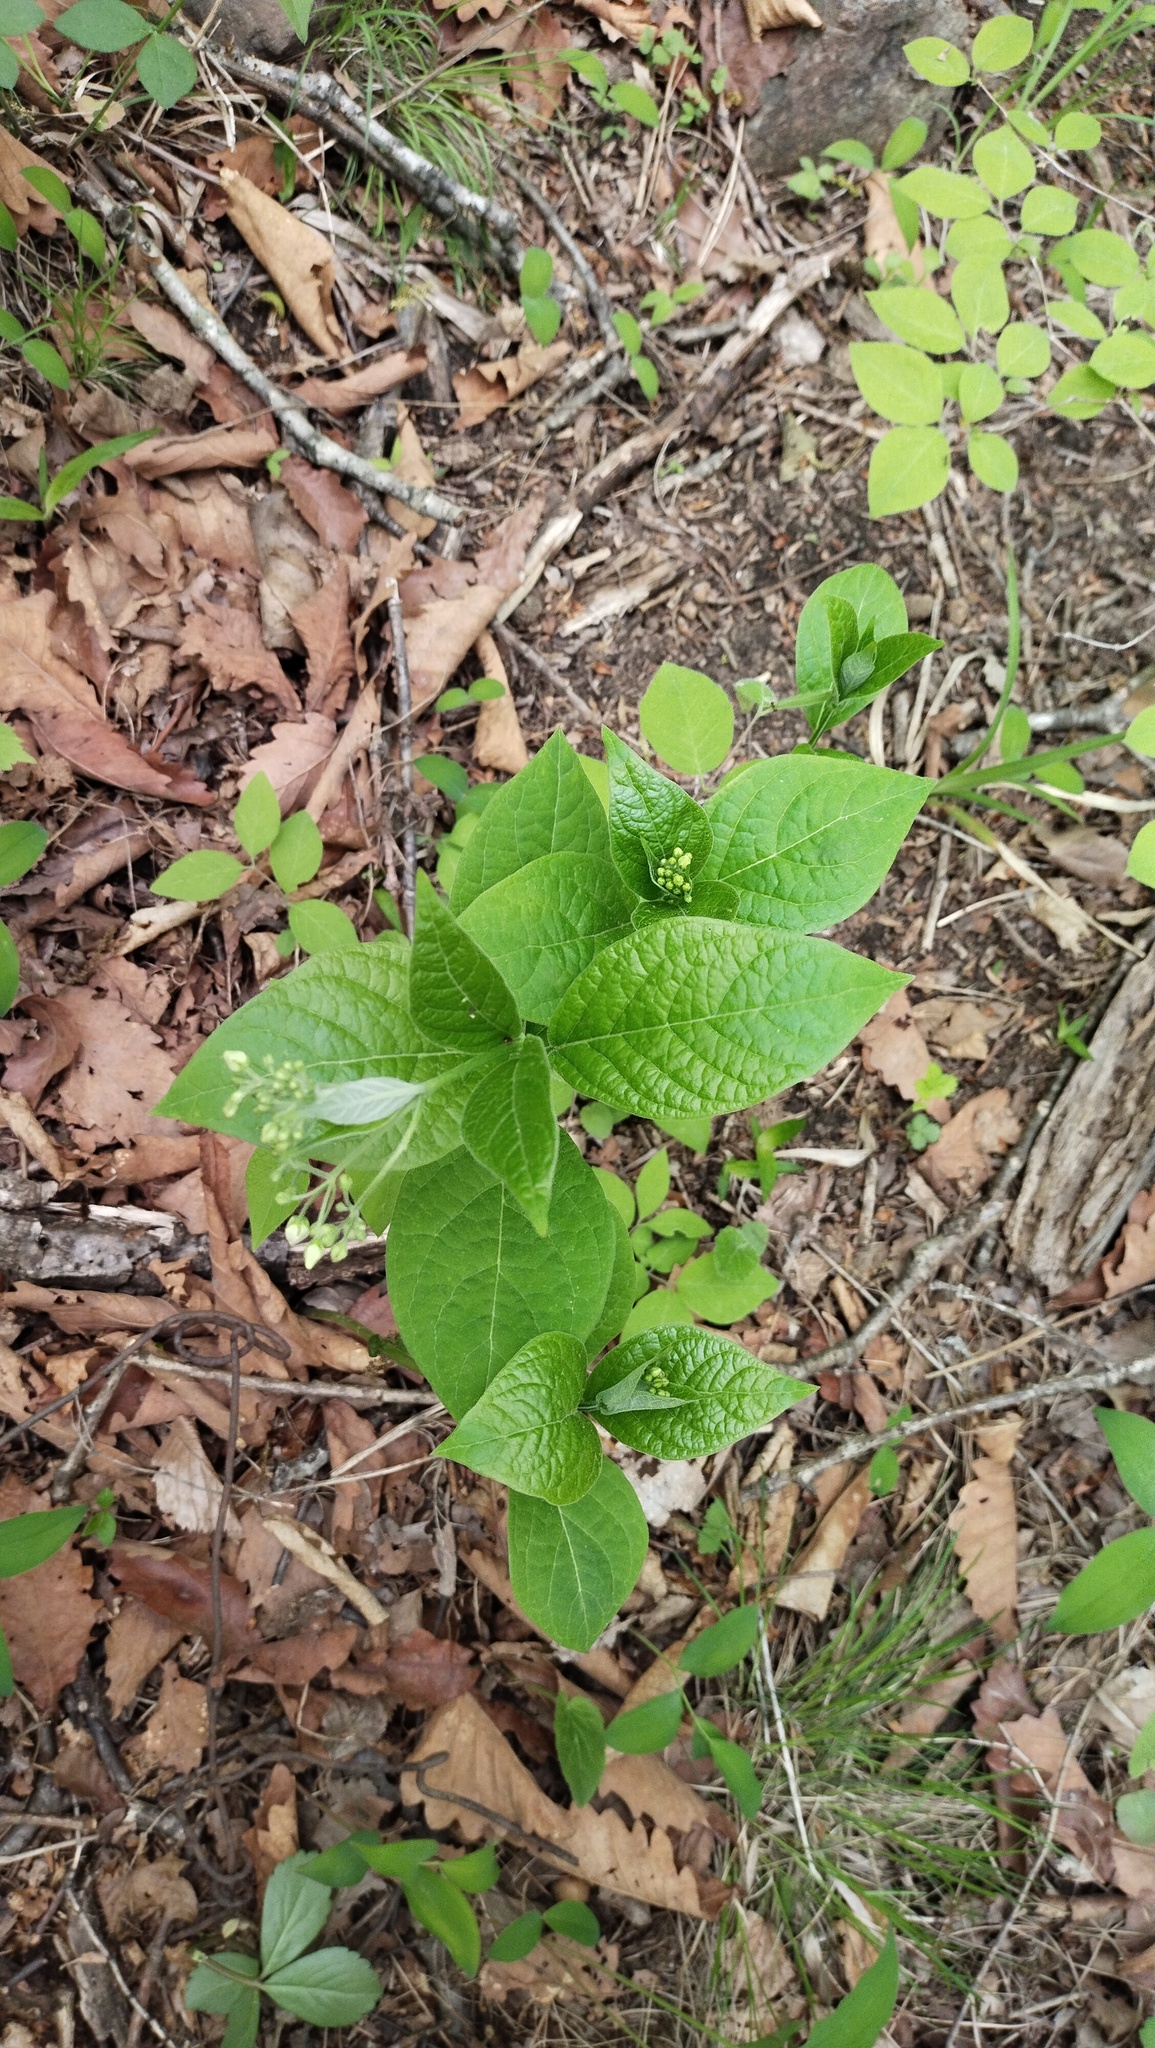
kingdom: Plantae
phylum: Tracheophyta
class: Magnoliopsida
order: Gentianales
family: Apocynaceae
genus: Vincetoxicum
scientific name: Vincetoxicum ascyrifolium
